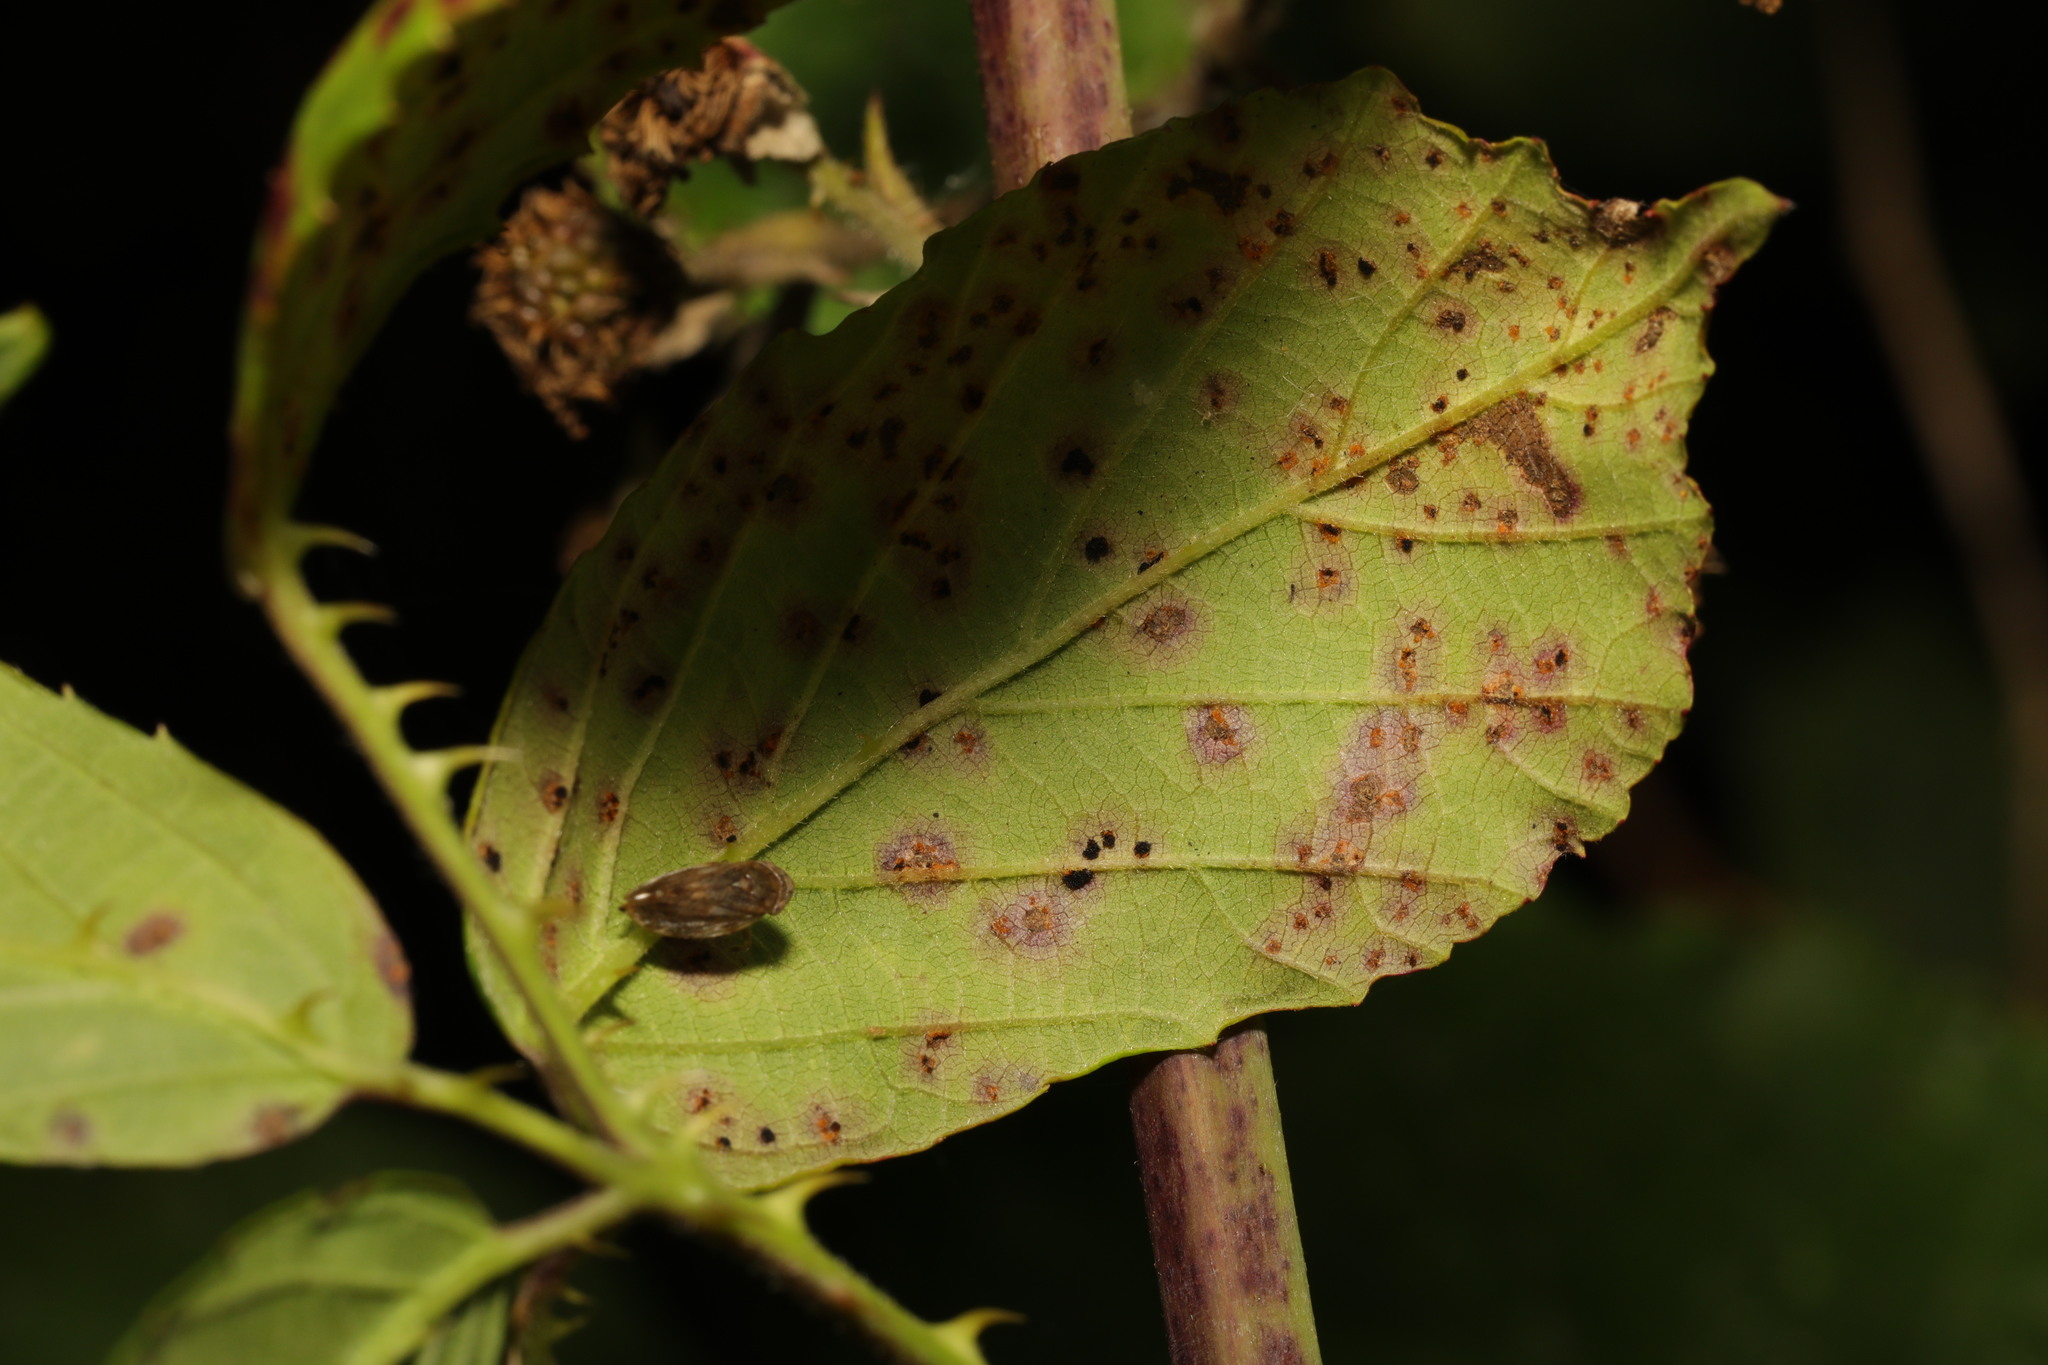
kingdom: Fungi
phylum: Basidiomycota
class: Pucciniomycetes
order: Pucciniales
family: Phragmidiaceae
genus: Phragmidium
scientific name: Phragmidium violaceum
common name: Violet bramble rust
